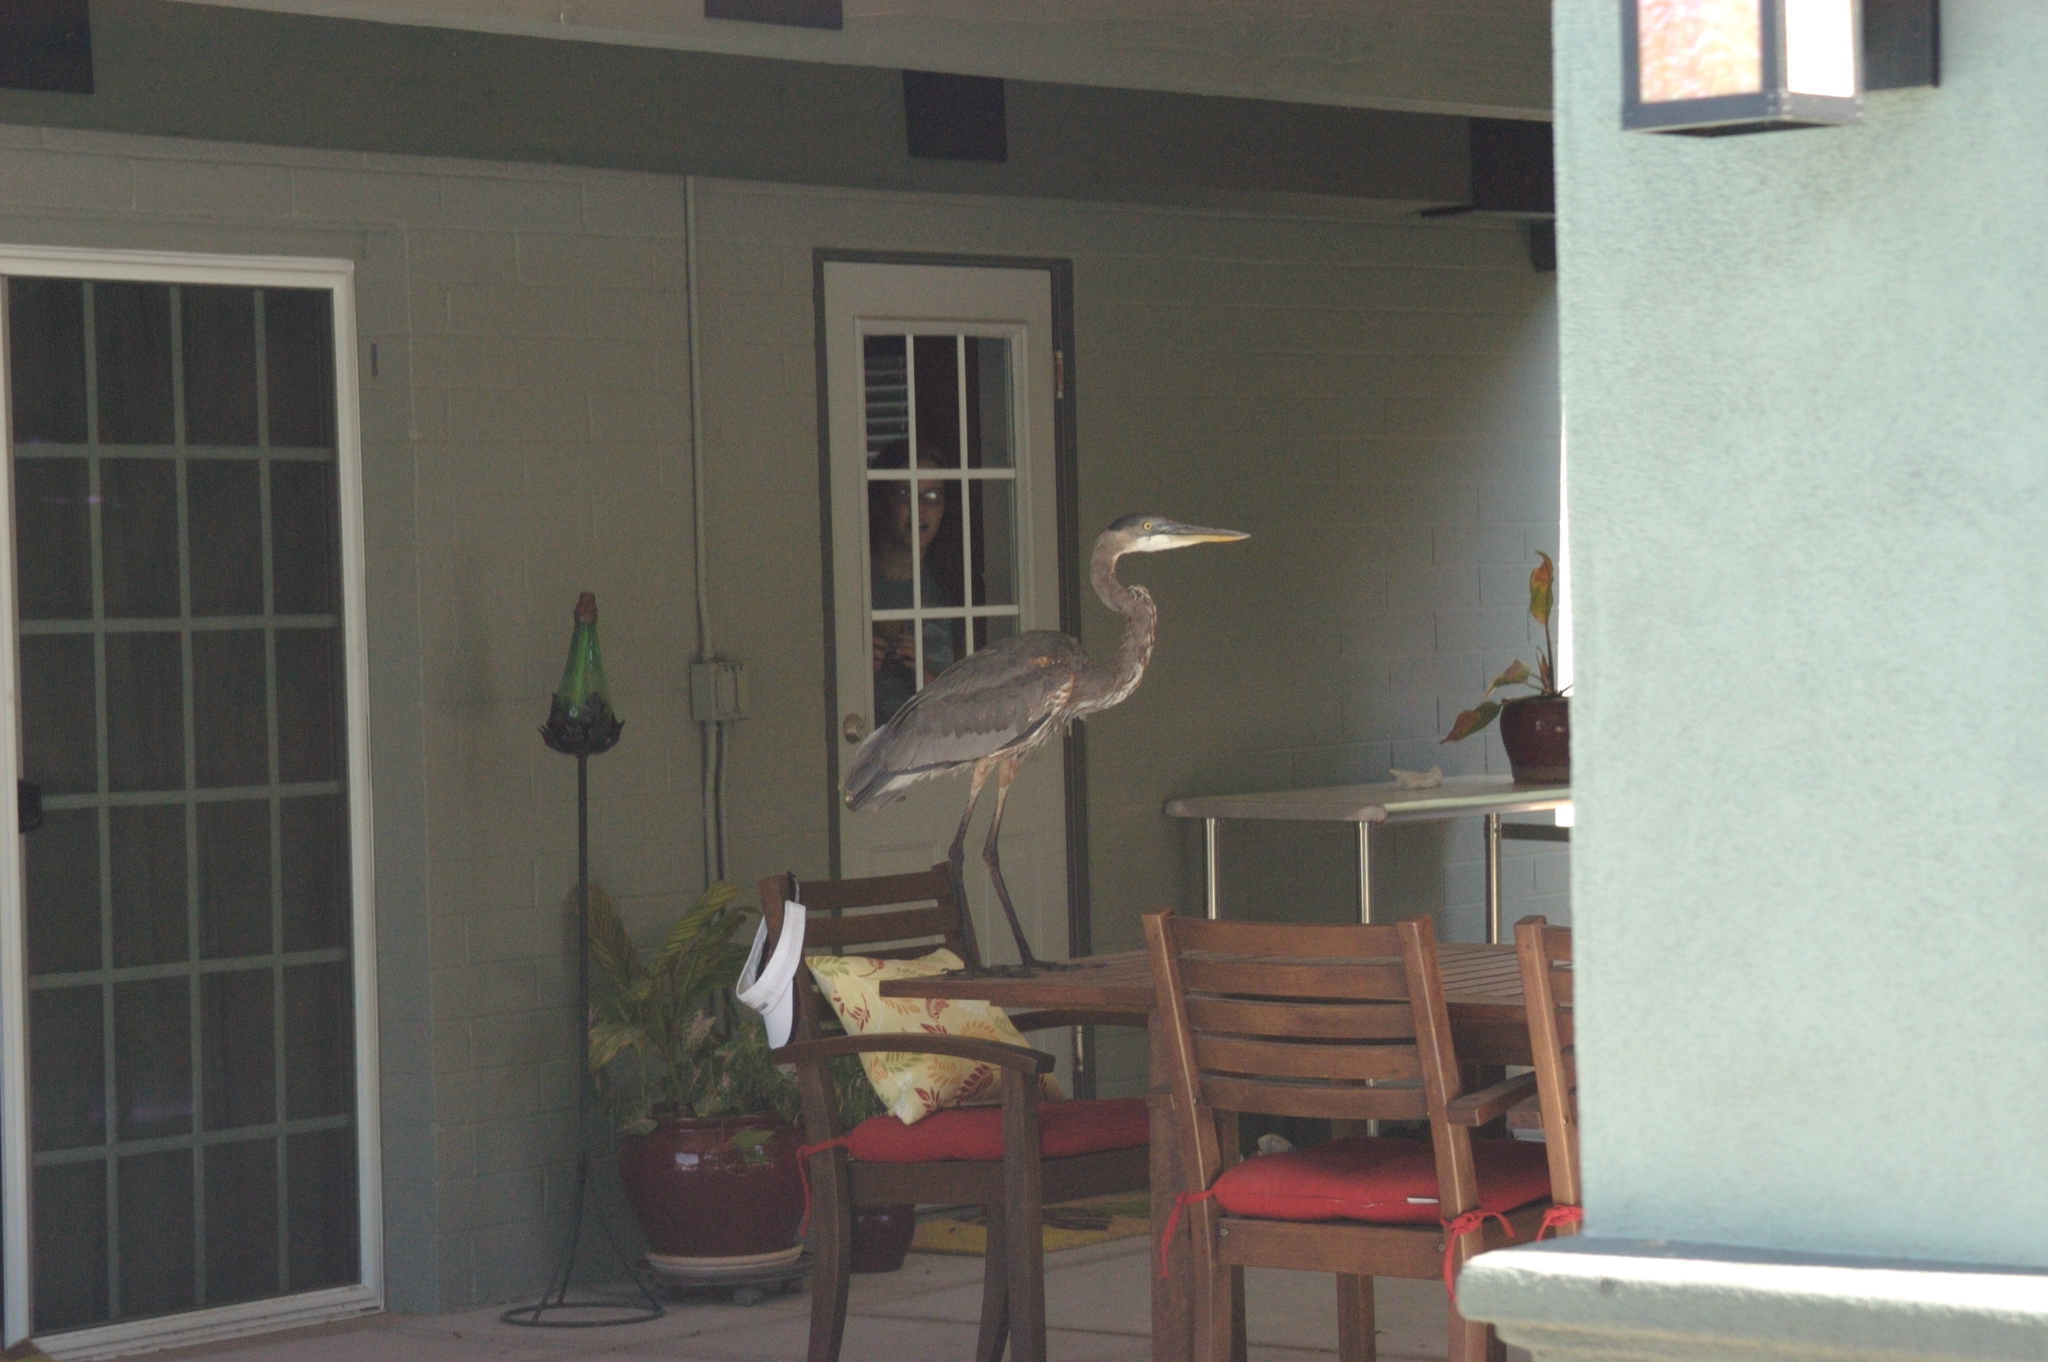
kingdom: Animalia
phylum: Chordata
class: Aves
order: Pelecaniformes
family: Ardeidae
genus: Ardea
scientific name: Ardea herodias
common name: Great blue heron
